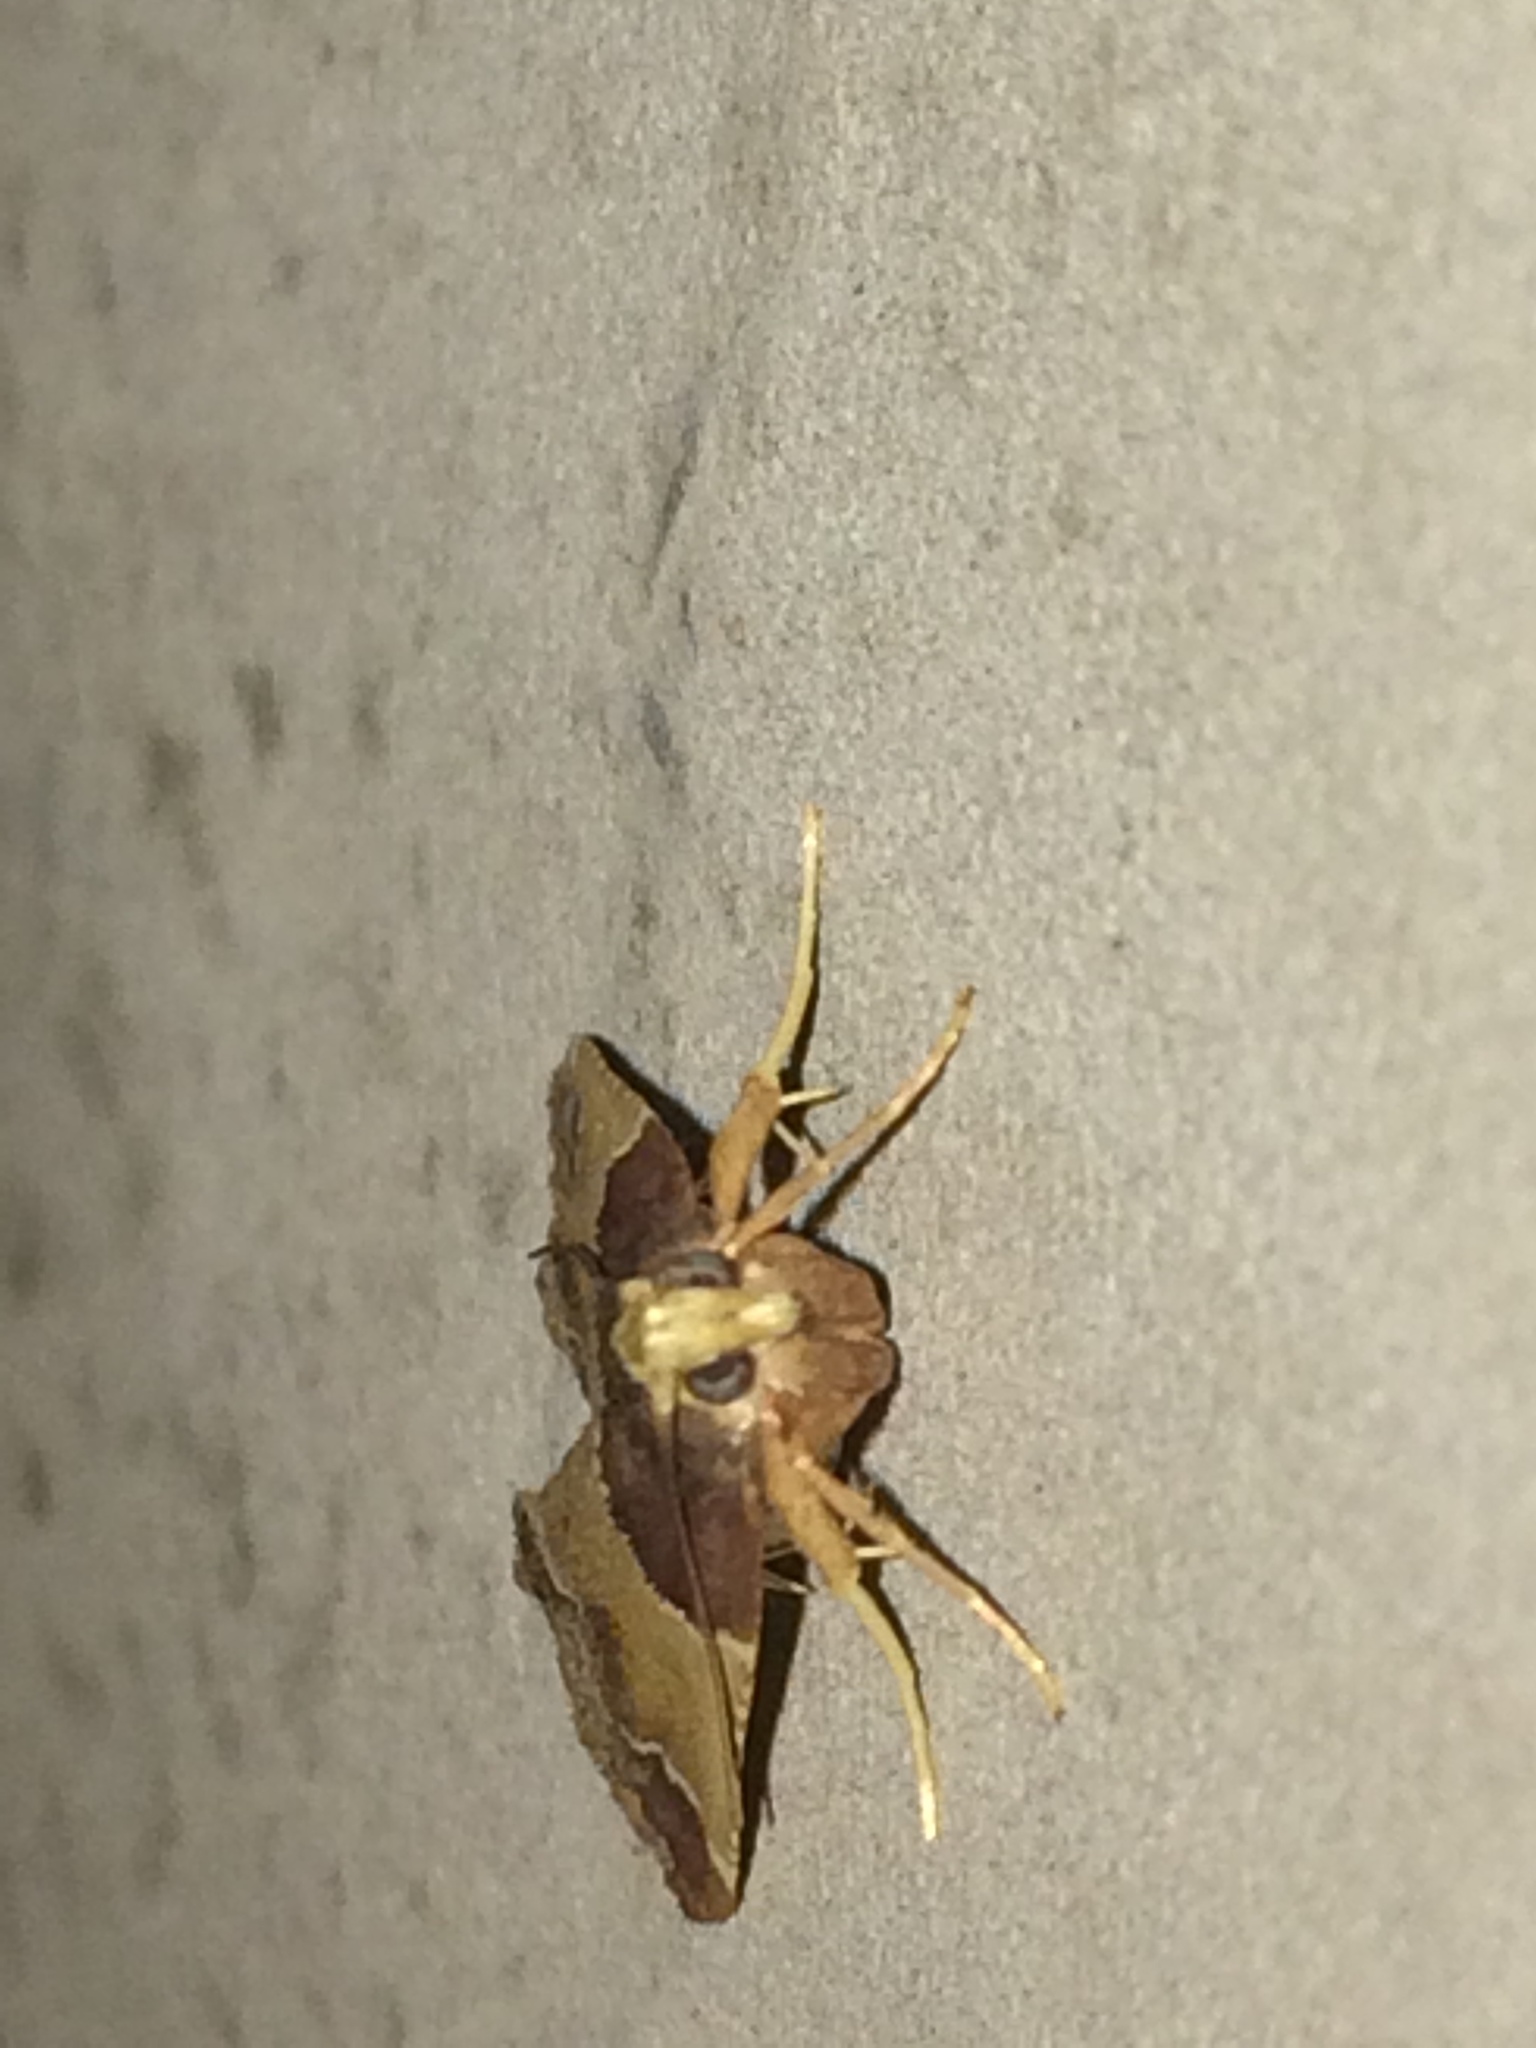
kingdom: Animalia
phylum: Arthropoda
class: Insecta
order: Lepidoptera
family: Pyralidae
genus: Pyralis
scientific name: Pyralis farinalis
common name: Meal moth
